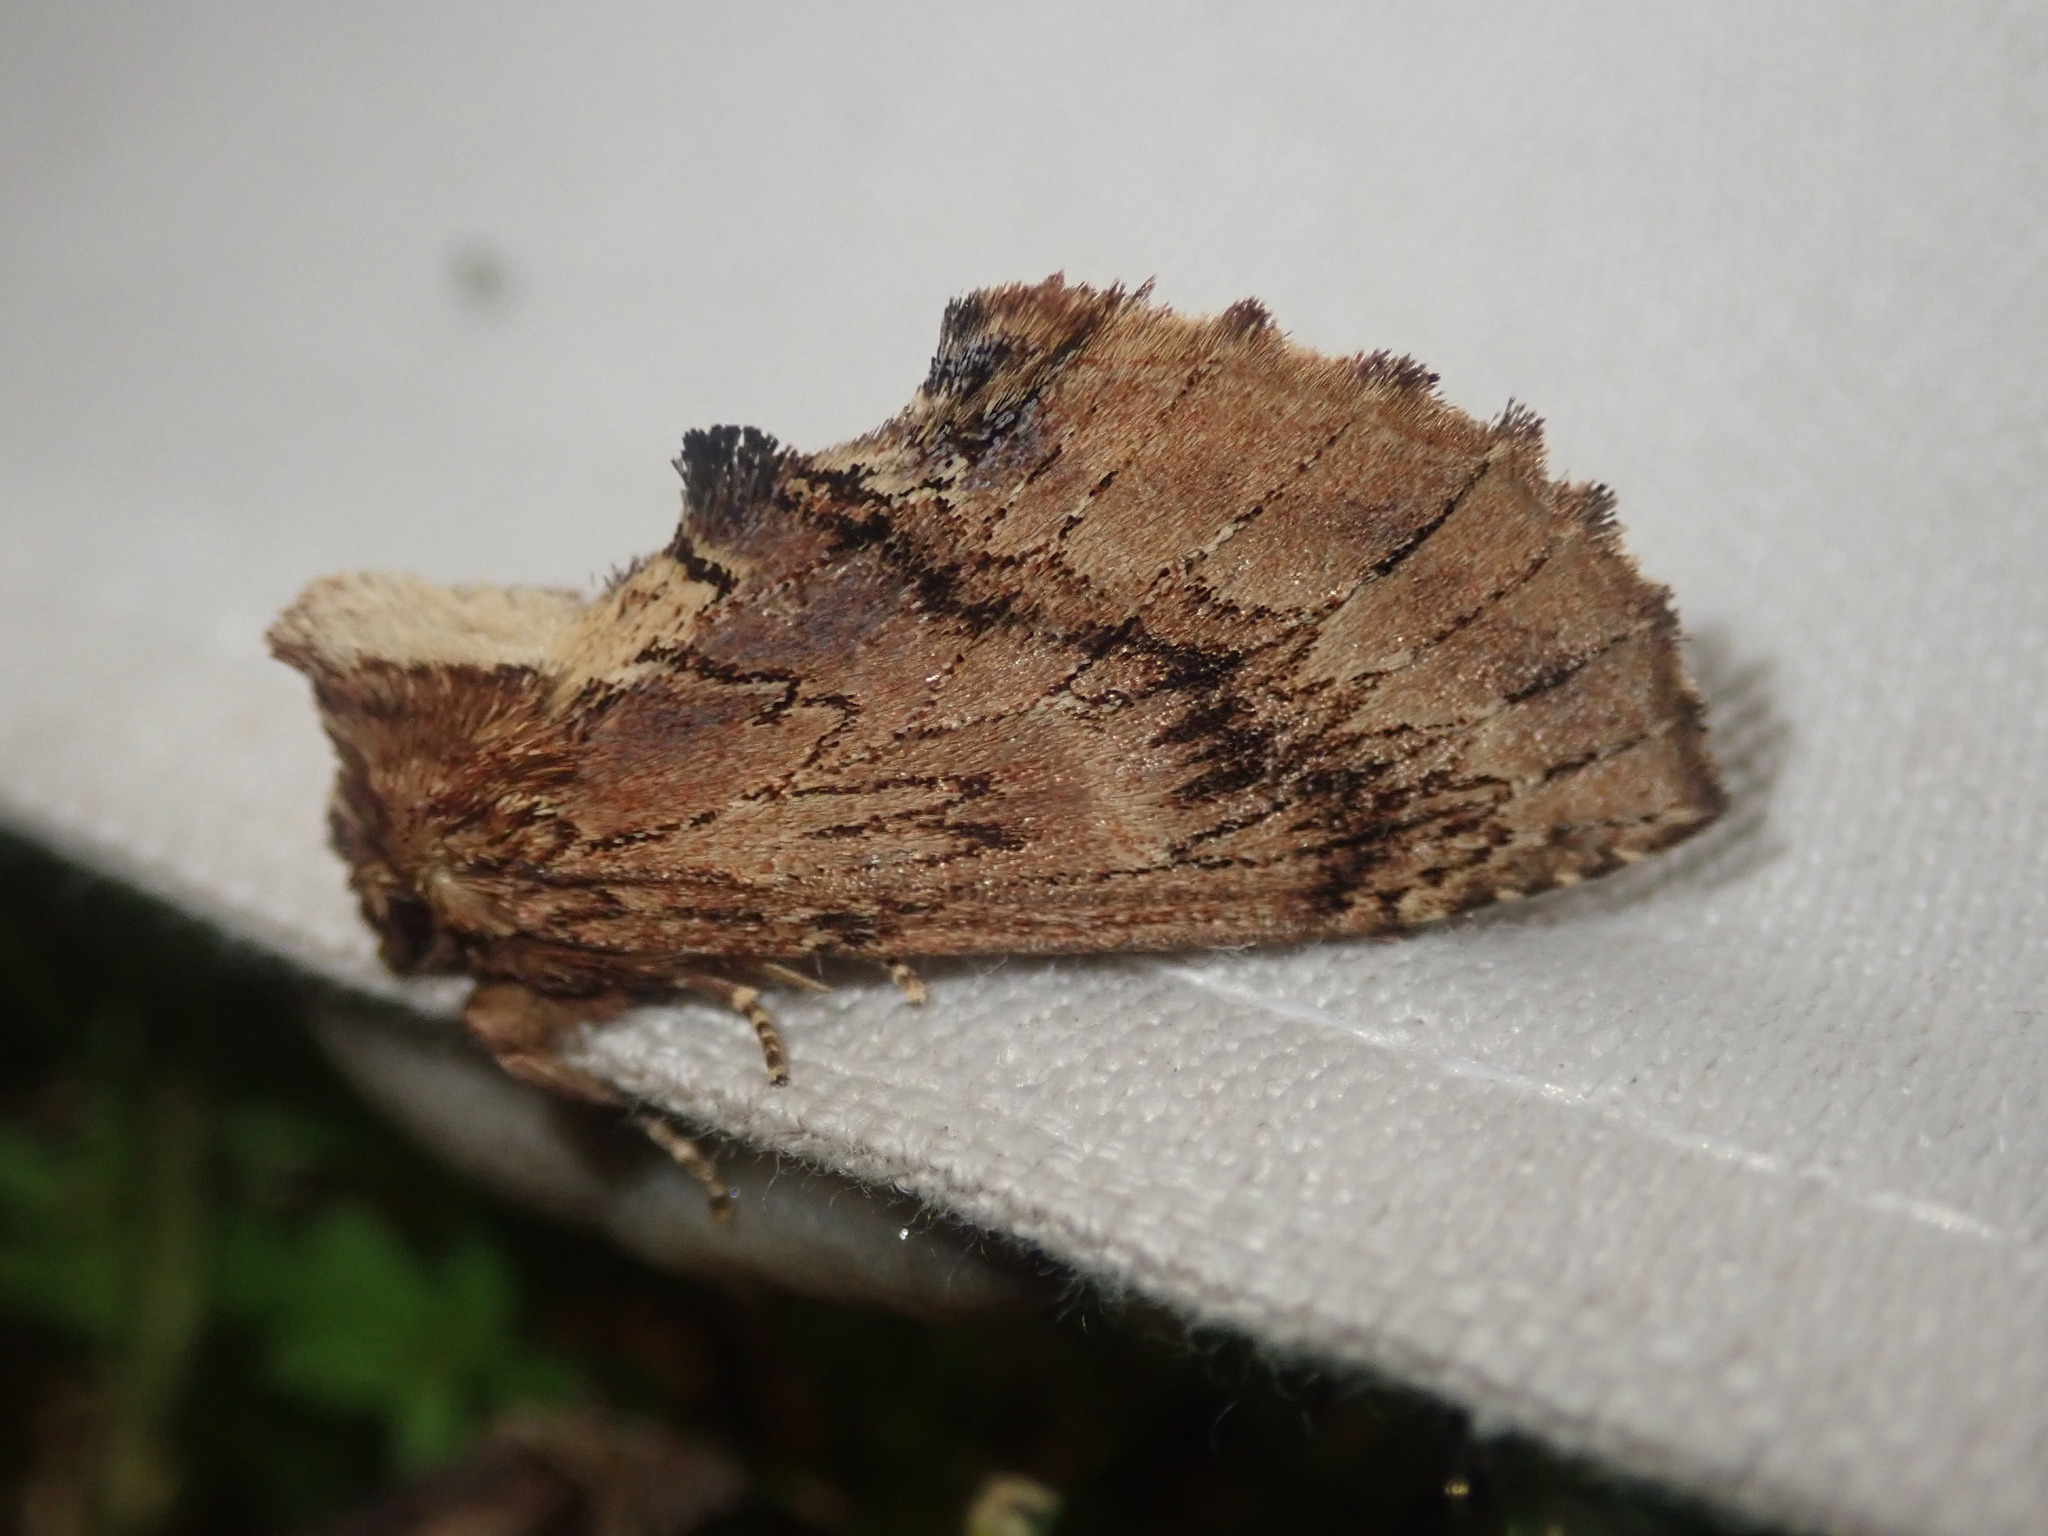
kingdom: Animalia
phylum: Arthropoda
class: Insecta
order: Lepidoptera
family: Notodontidae
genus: Ptilodon
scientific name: Ptilodon capucina
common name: Coxcomb prominent
